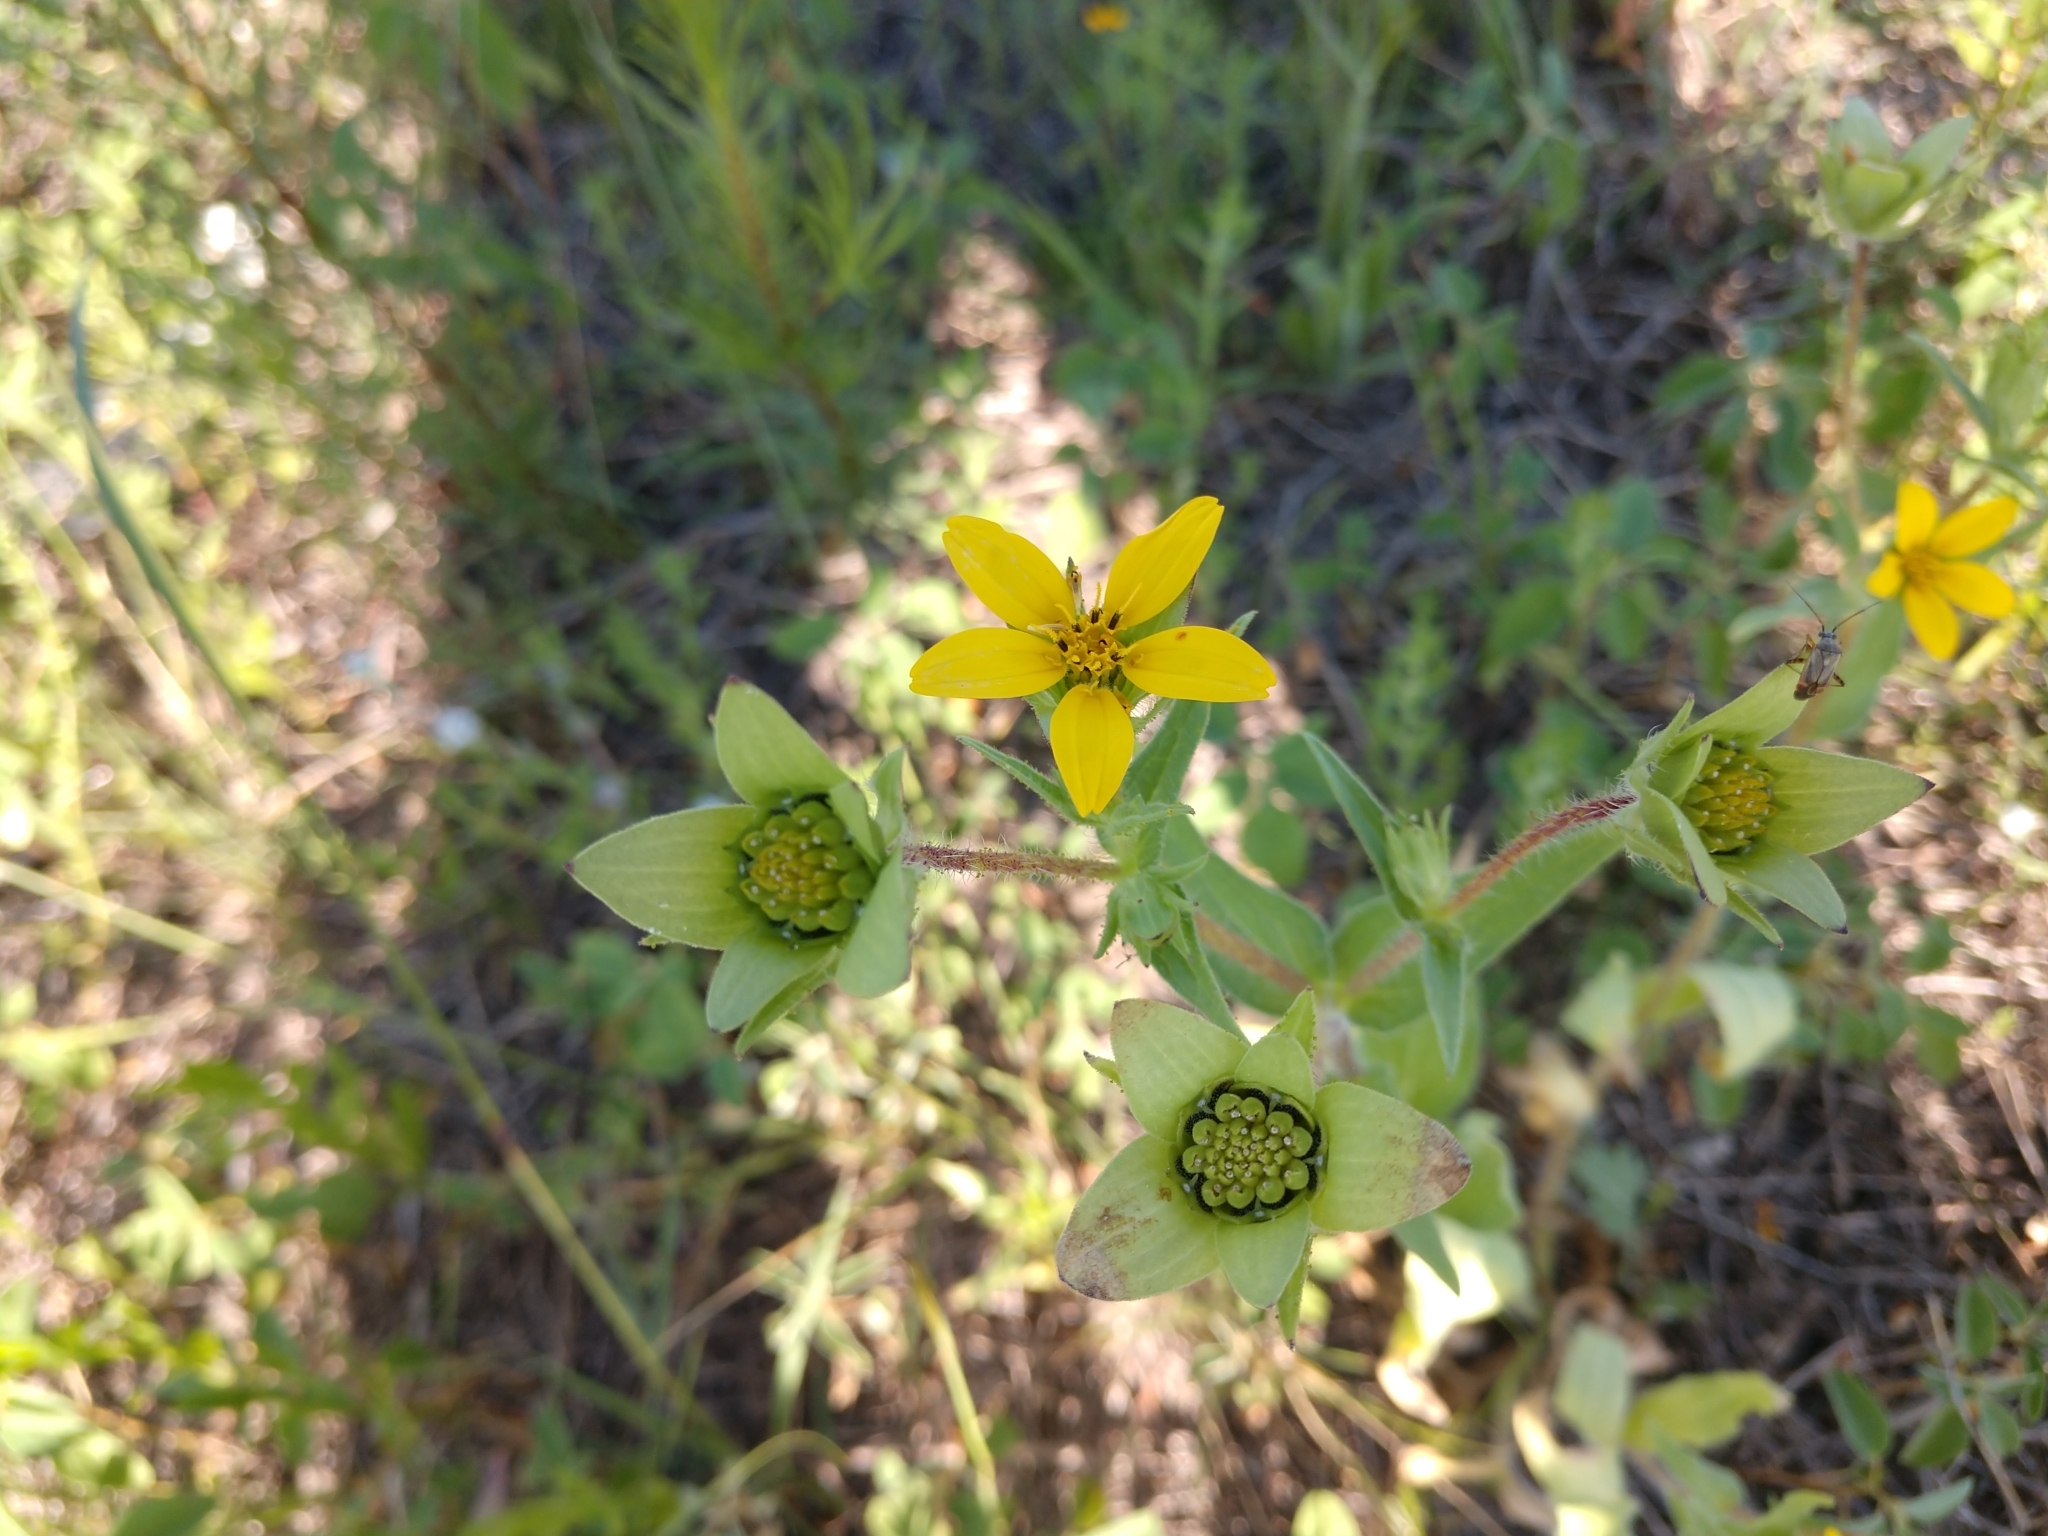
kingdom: Plantae
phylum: Tracheophyta
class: Magnoliopsida
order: Asterales
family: Asteraceae
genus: Lindheimera
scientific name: Lindheimera texana
